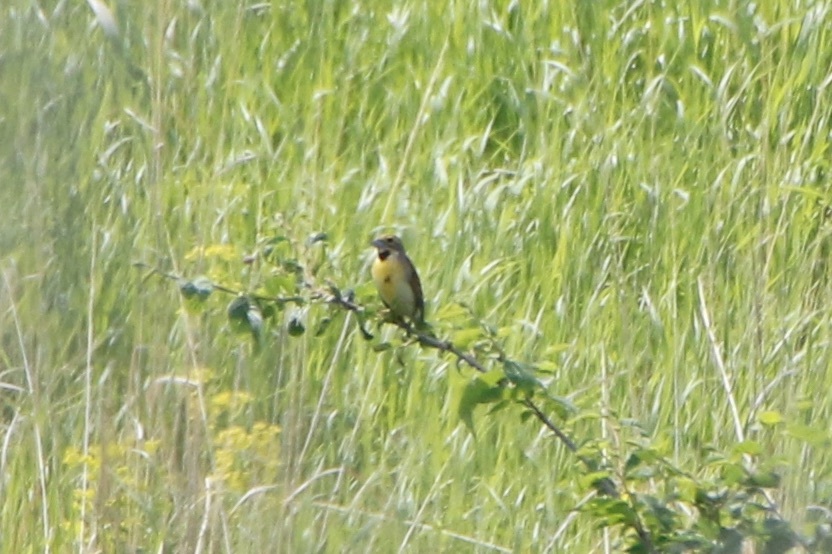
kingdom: Animalia
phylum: Chordata
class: Aves
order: Passeriformes
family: Cardinalidae
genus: Spiza
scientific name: Spiza americana
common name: Dickcissel
